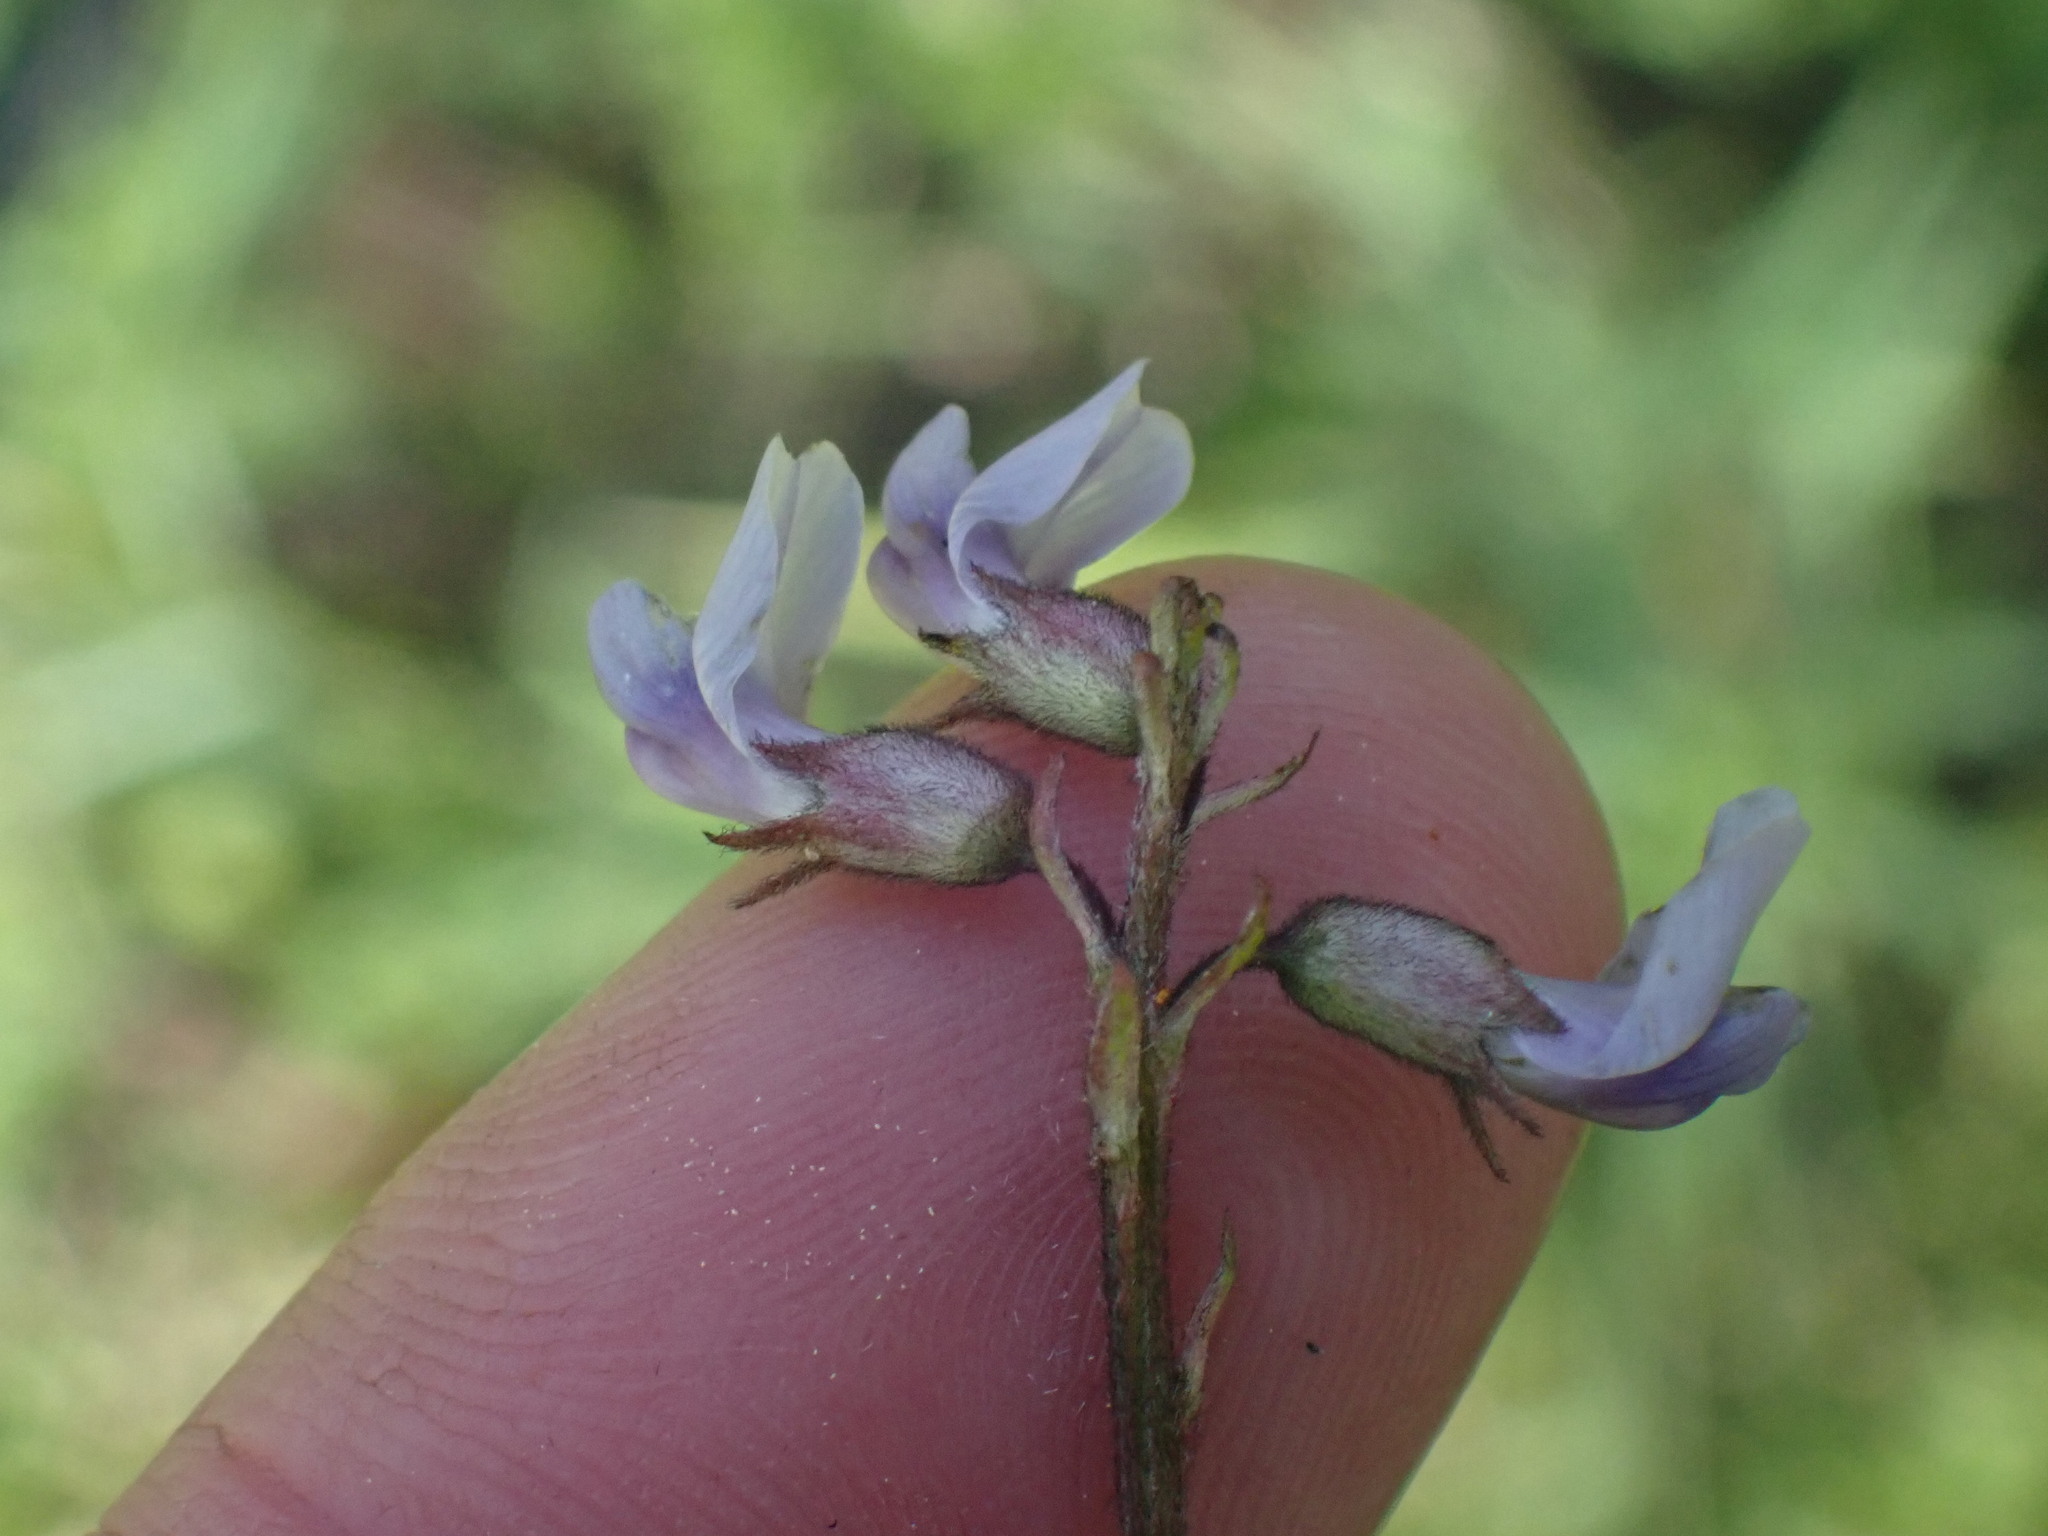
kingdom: Plantae
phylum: Tracheophyta
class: Magnoliopsida
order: Fabales
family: Fabaceae
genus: Astragalus
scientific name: Astragalus robbinsii
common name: Robbins' milk-vetch
